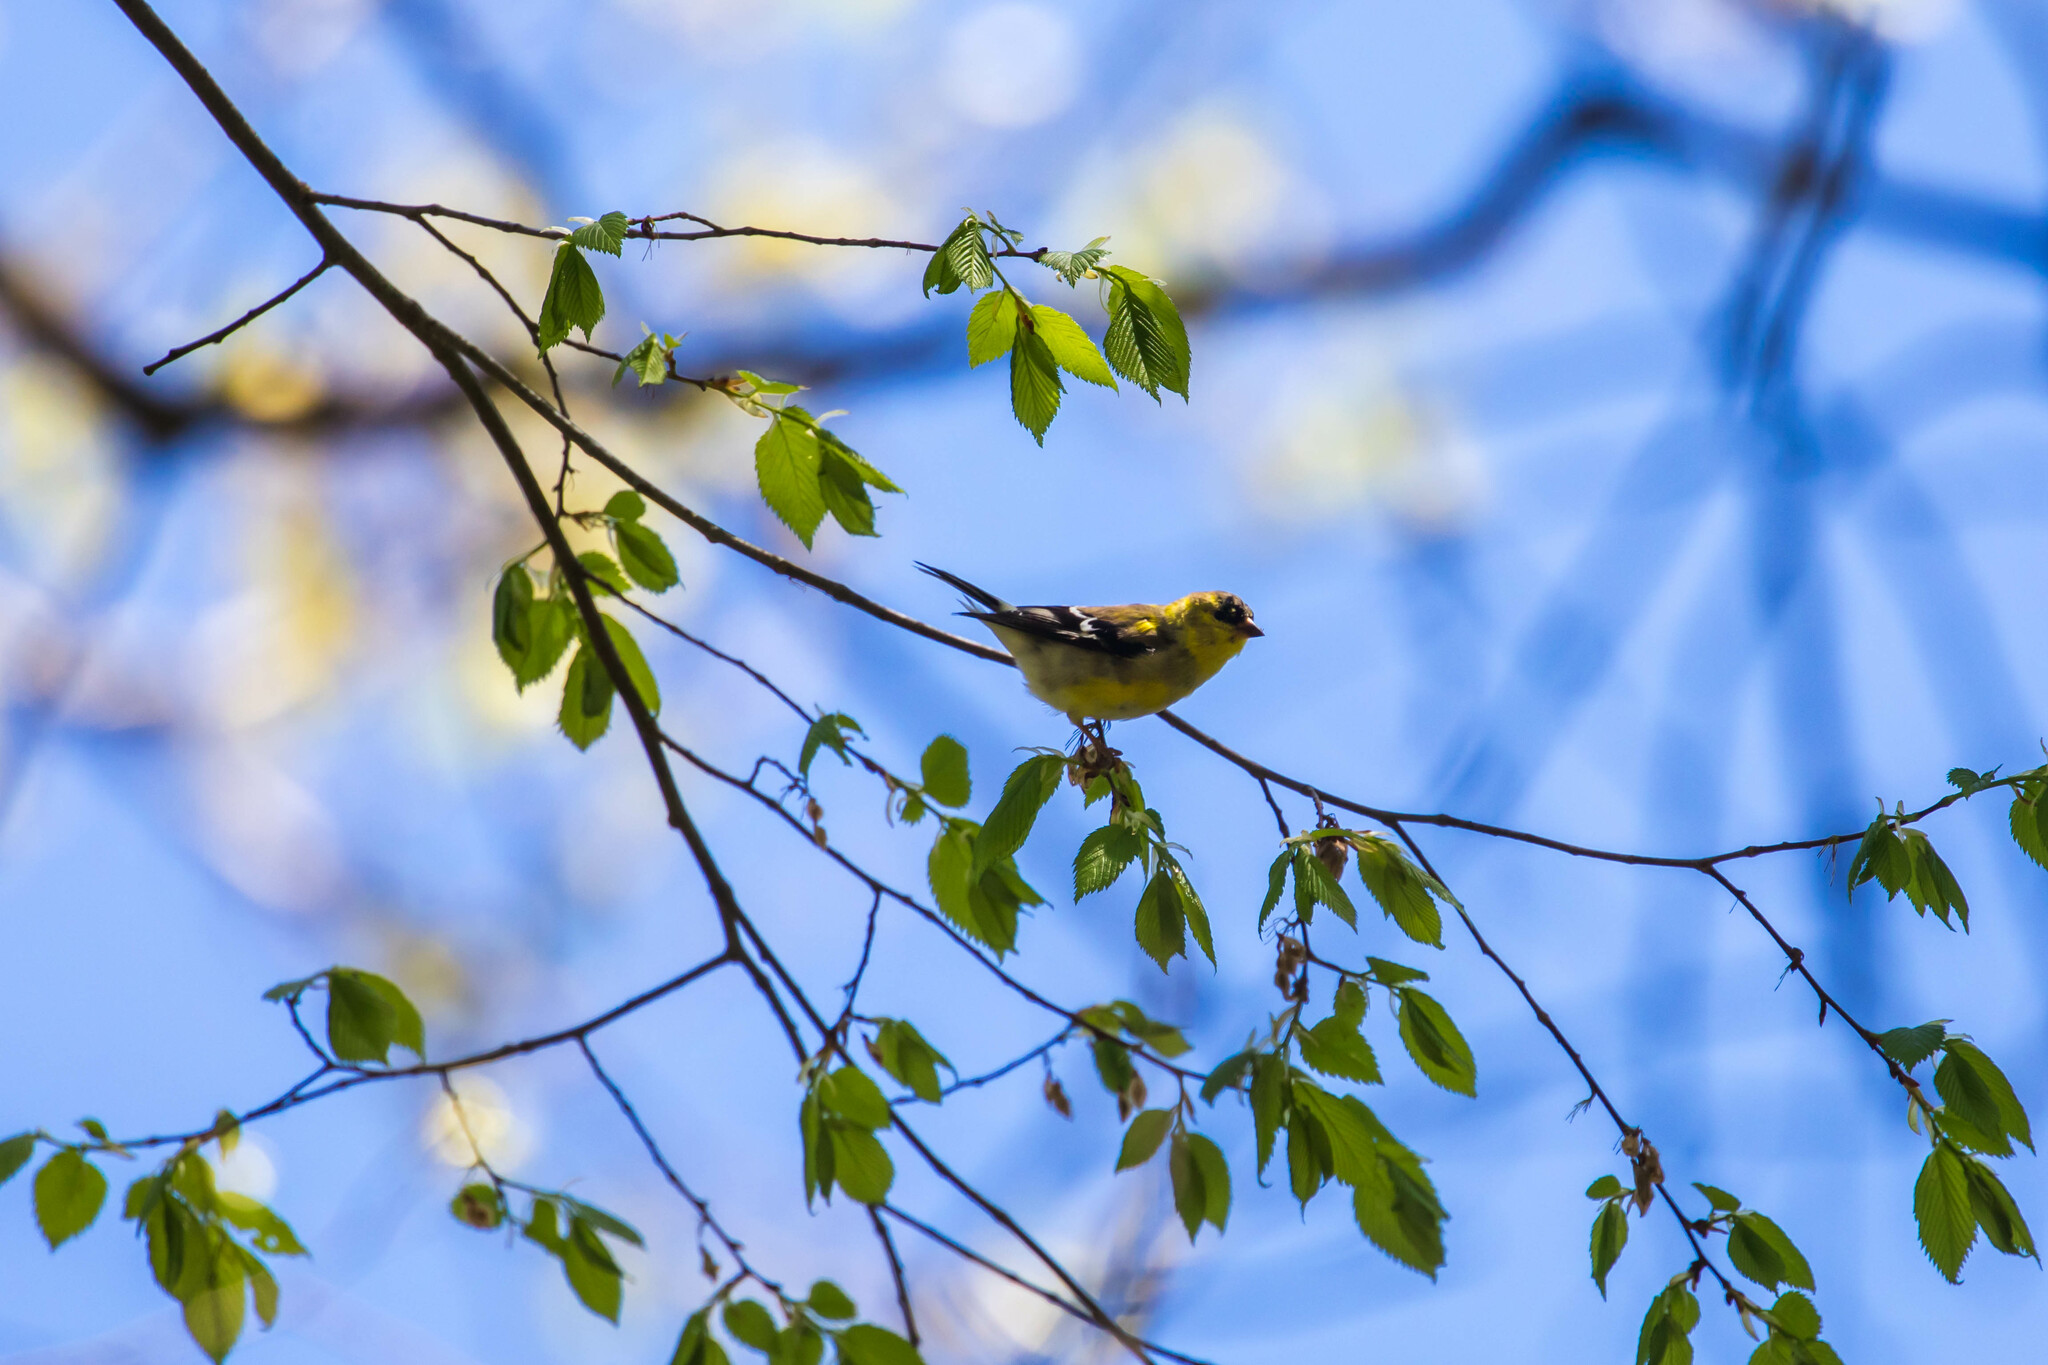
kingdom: Animalia
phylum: Chordata
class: Aves
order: Passeriformes
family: Fringillidae
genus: Spinus
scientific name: Spinus tristis
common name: American goldfinch
